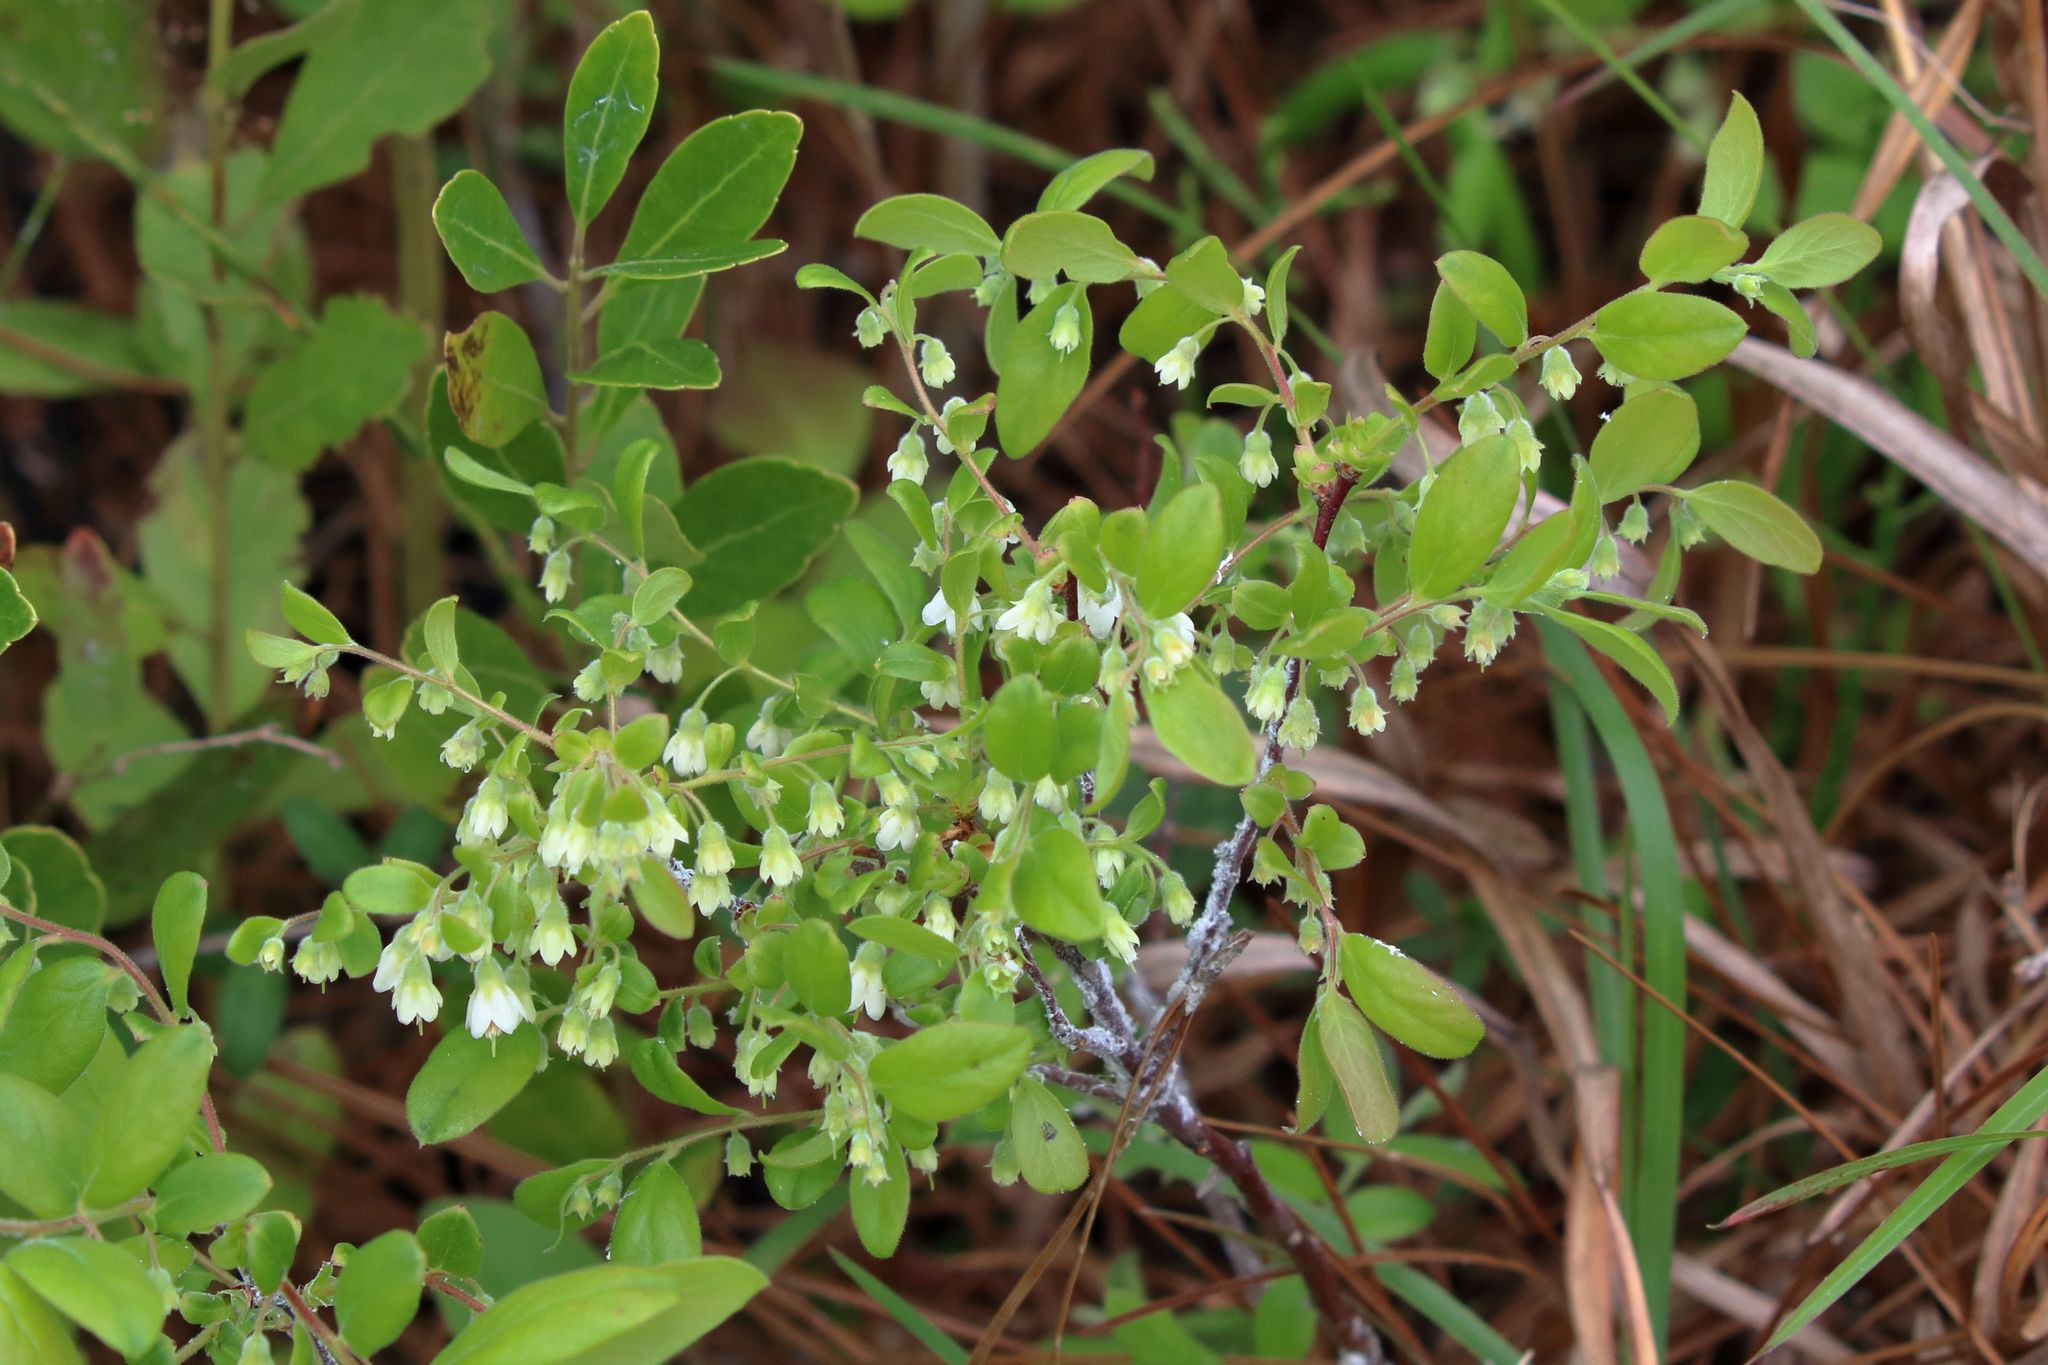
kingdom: Plantae
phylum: Tracheophyta
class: Magnoliopsida
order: Ericales
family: Ericaceae
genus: Vaccinium
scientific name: Vaccinium stamineum
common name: Deerberry
